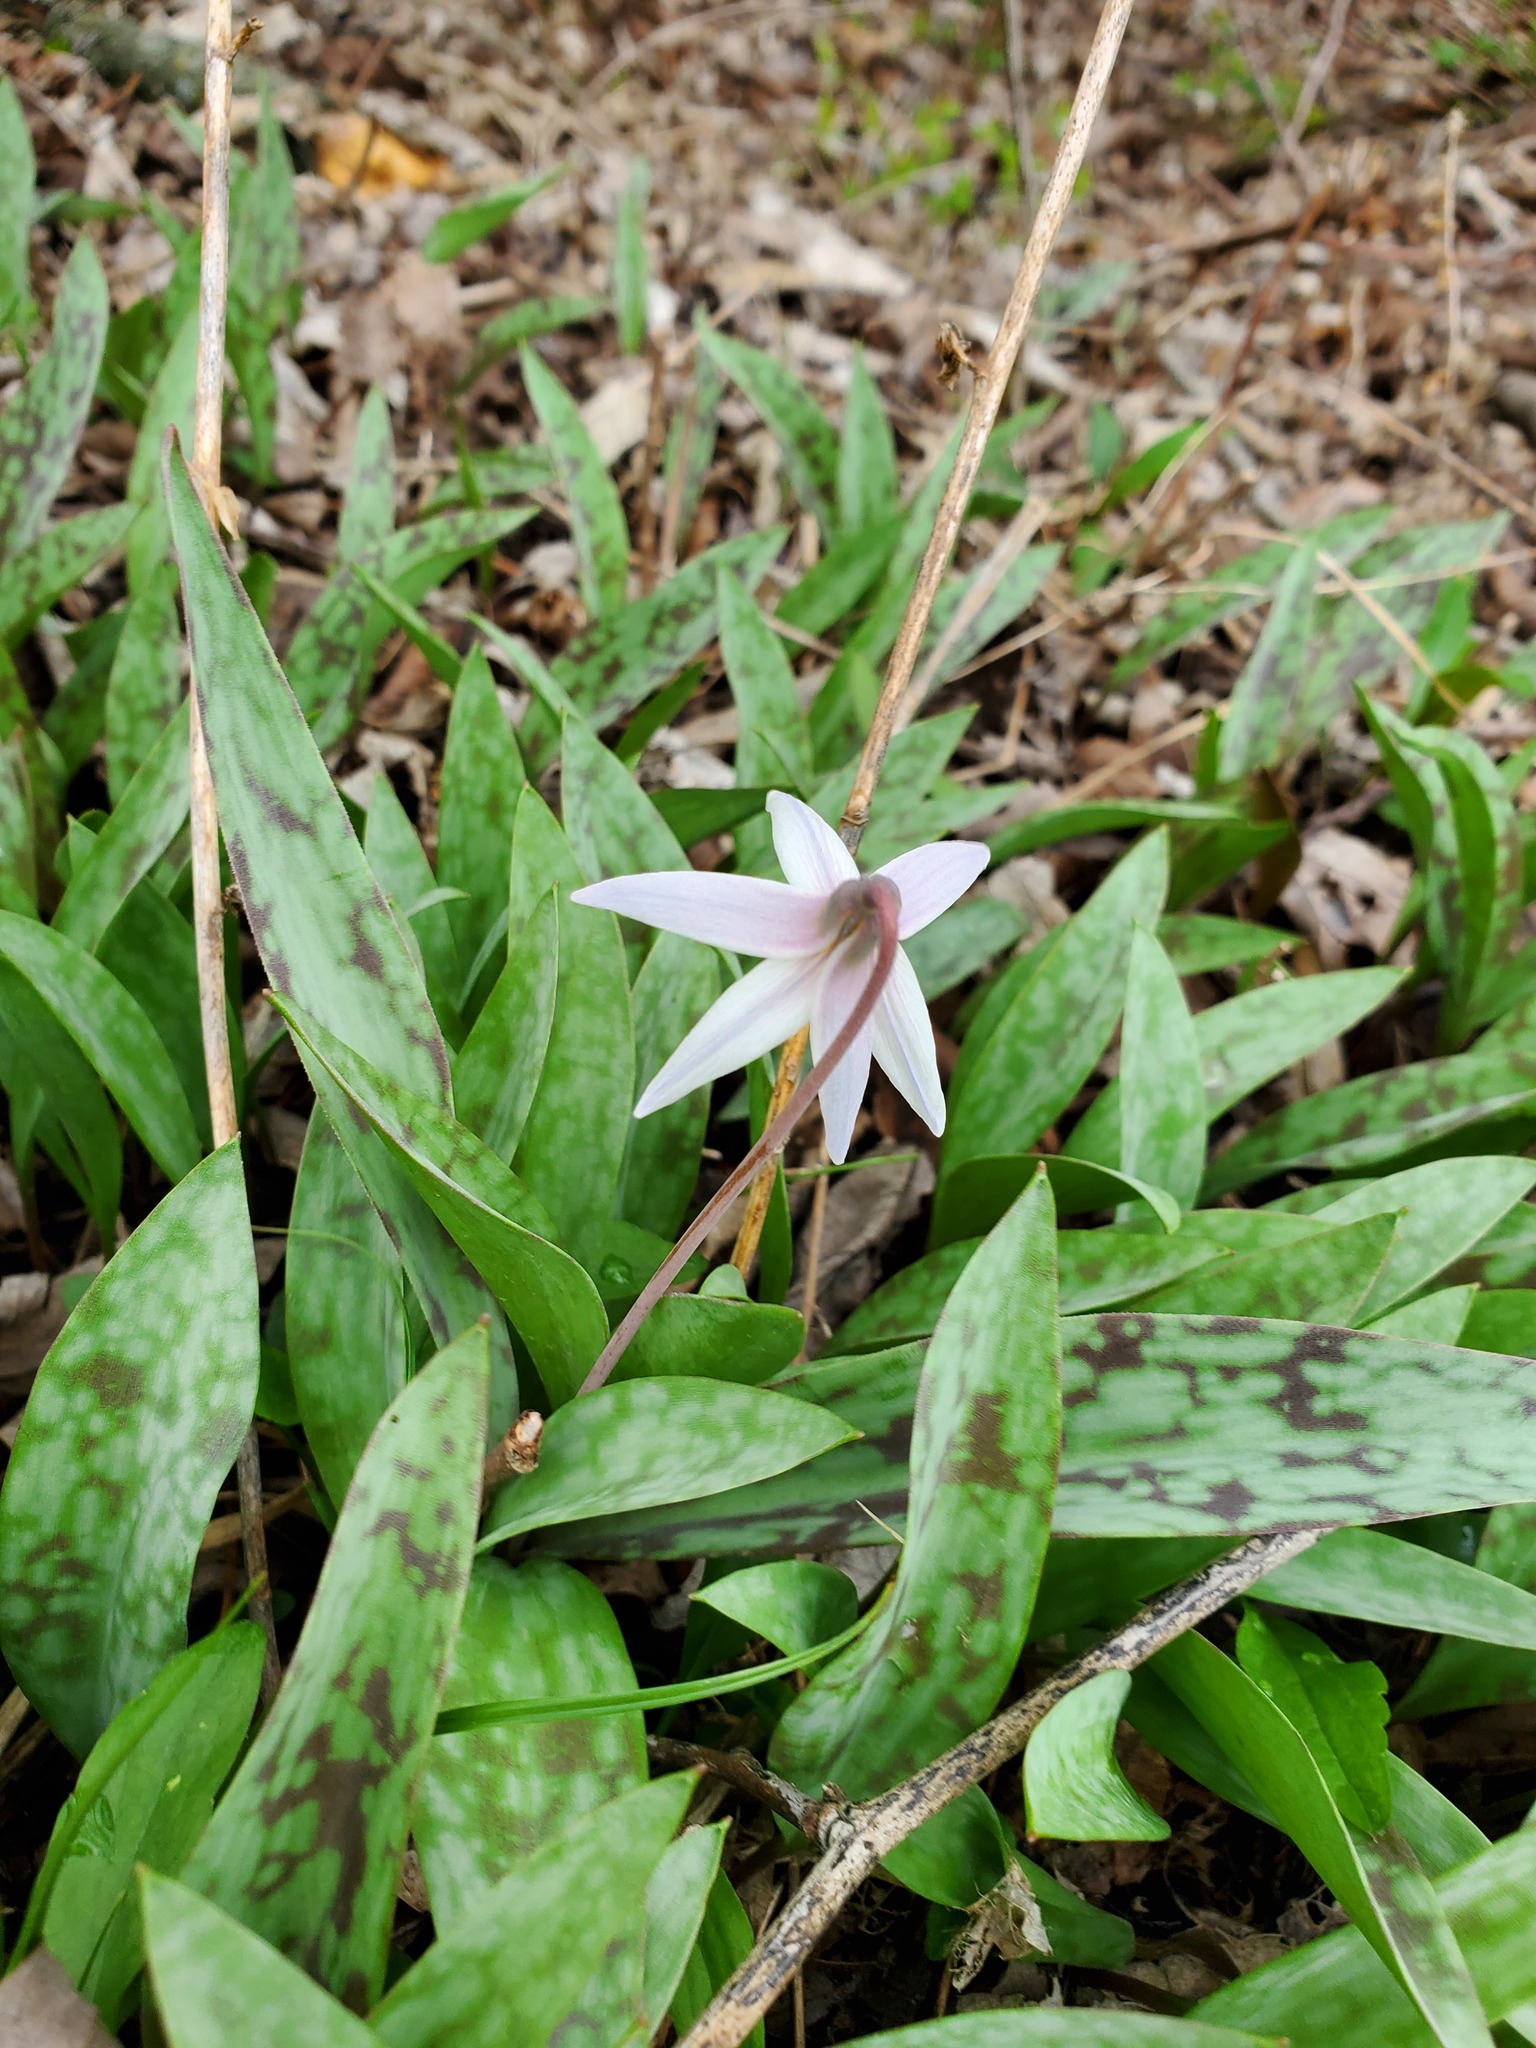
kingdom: Plantae
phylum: Tracheophyta
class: Liliopsida
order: Liliales
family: Liliaceae
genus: Erythronium
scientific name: Erythronium albidum
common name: White trout-lily
